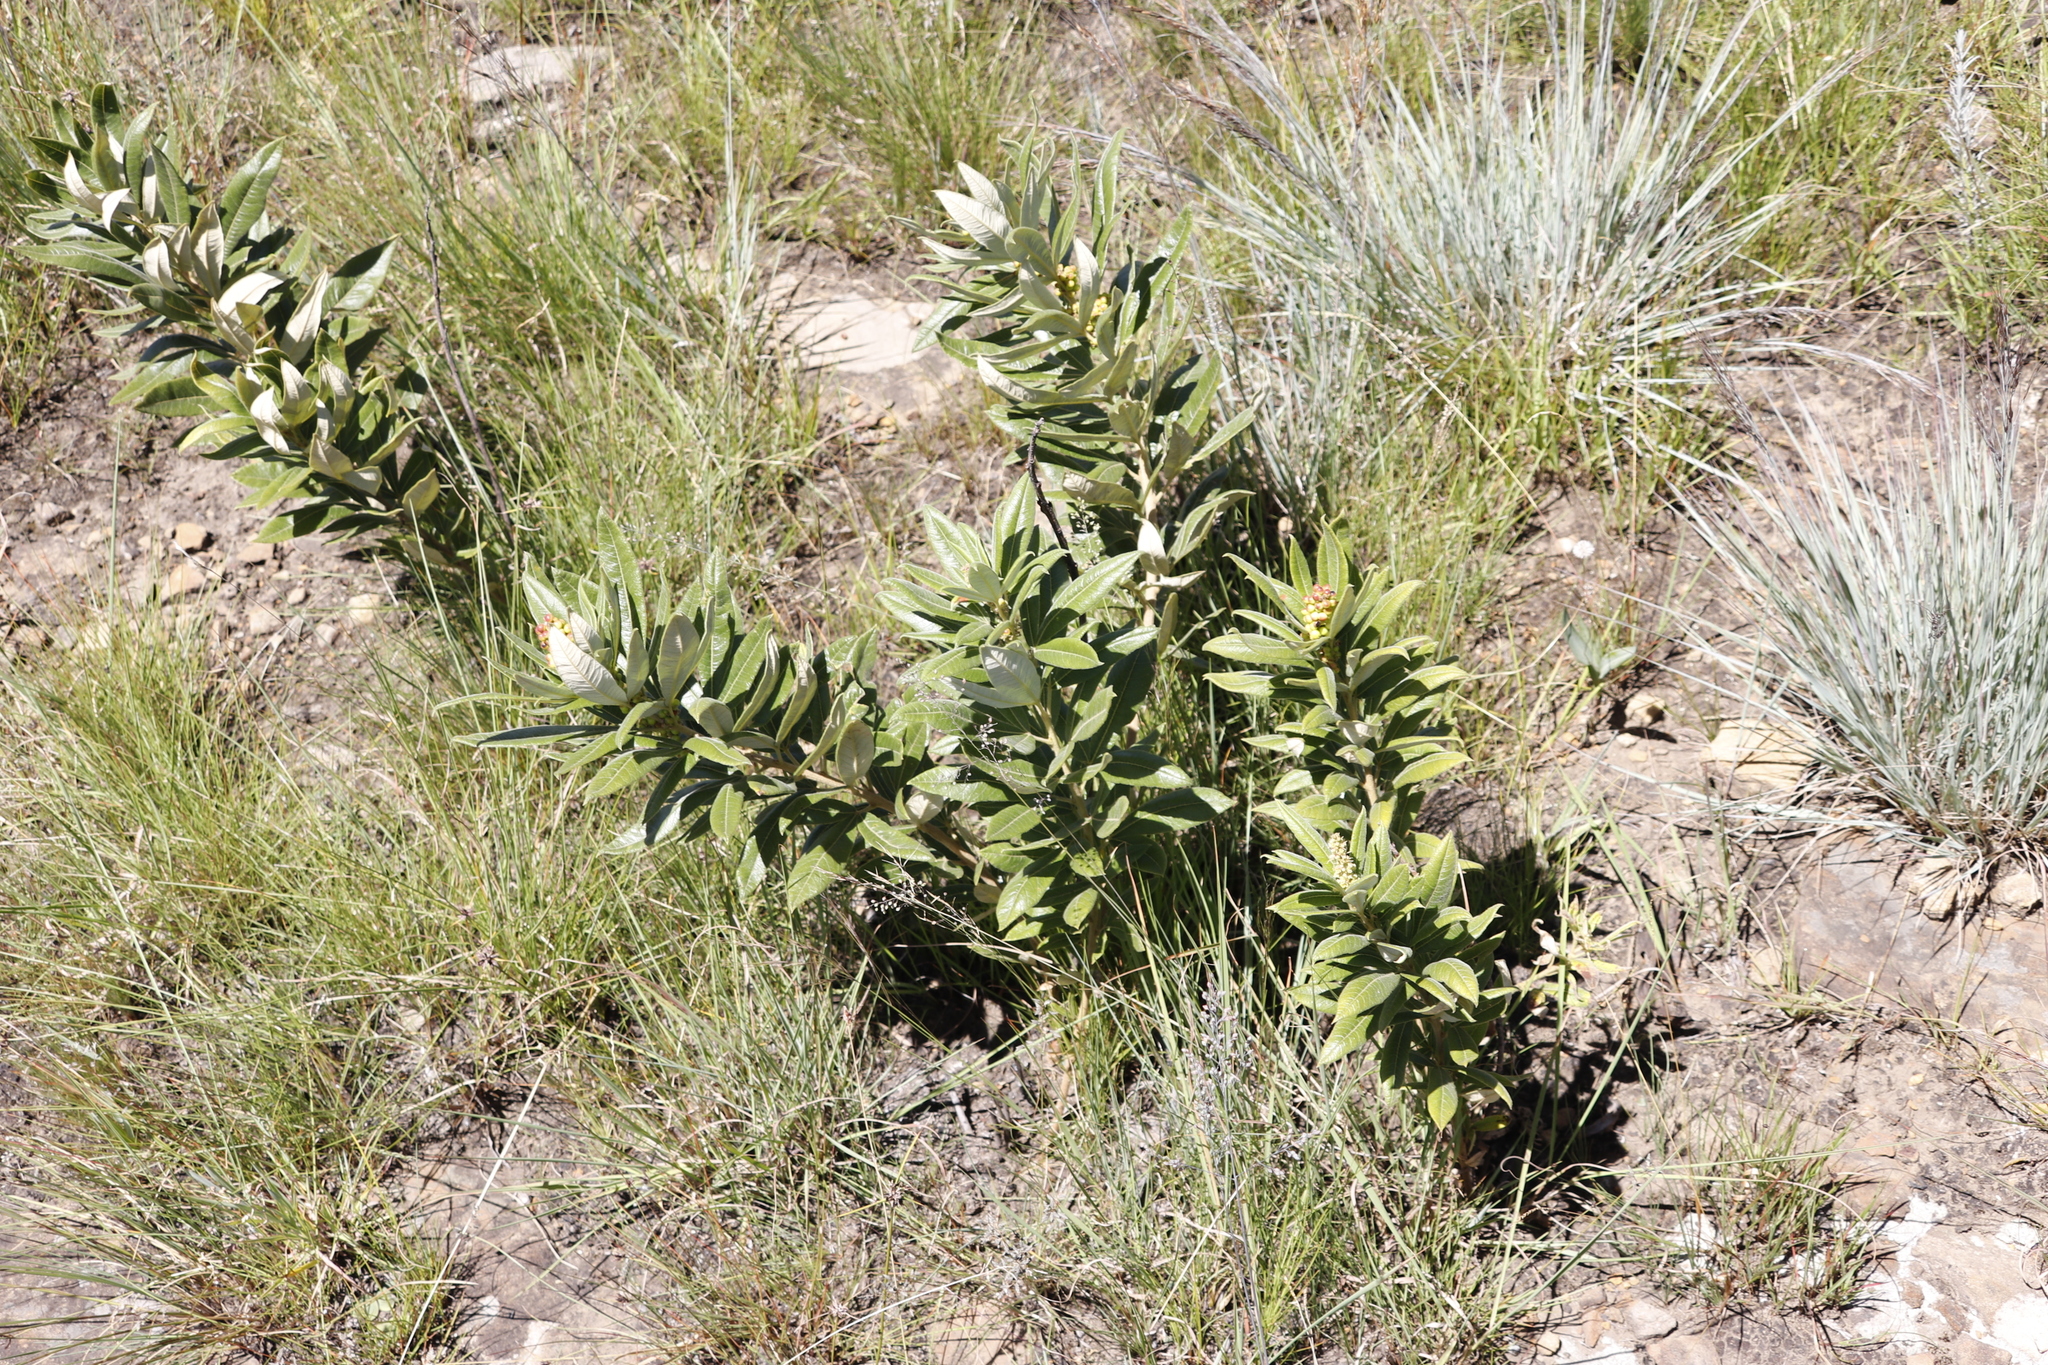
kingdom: Plantae
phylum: Tracheophyta
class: Magnoliopsida
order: Sapindales
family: Anacardiaceae
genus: Searsia
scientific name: Searsia discolor
